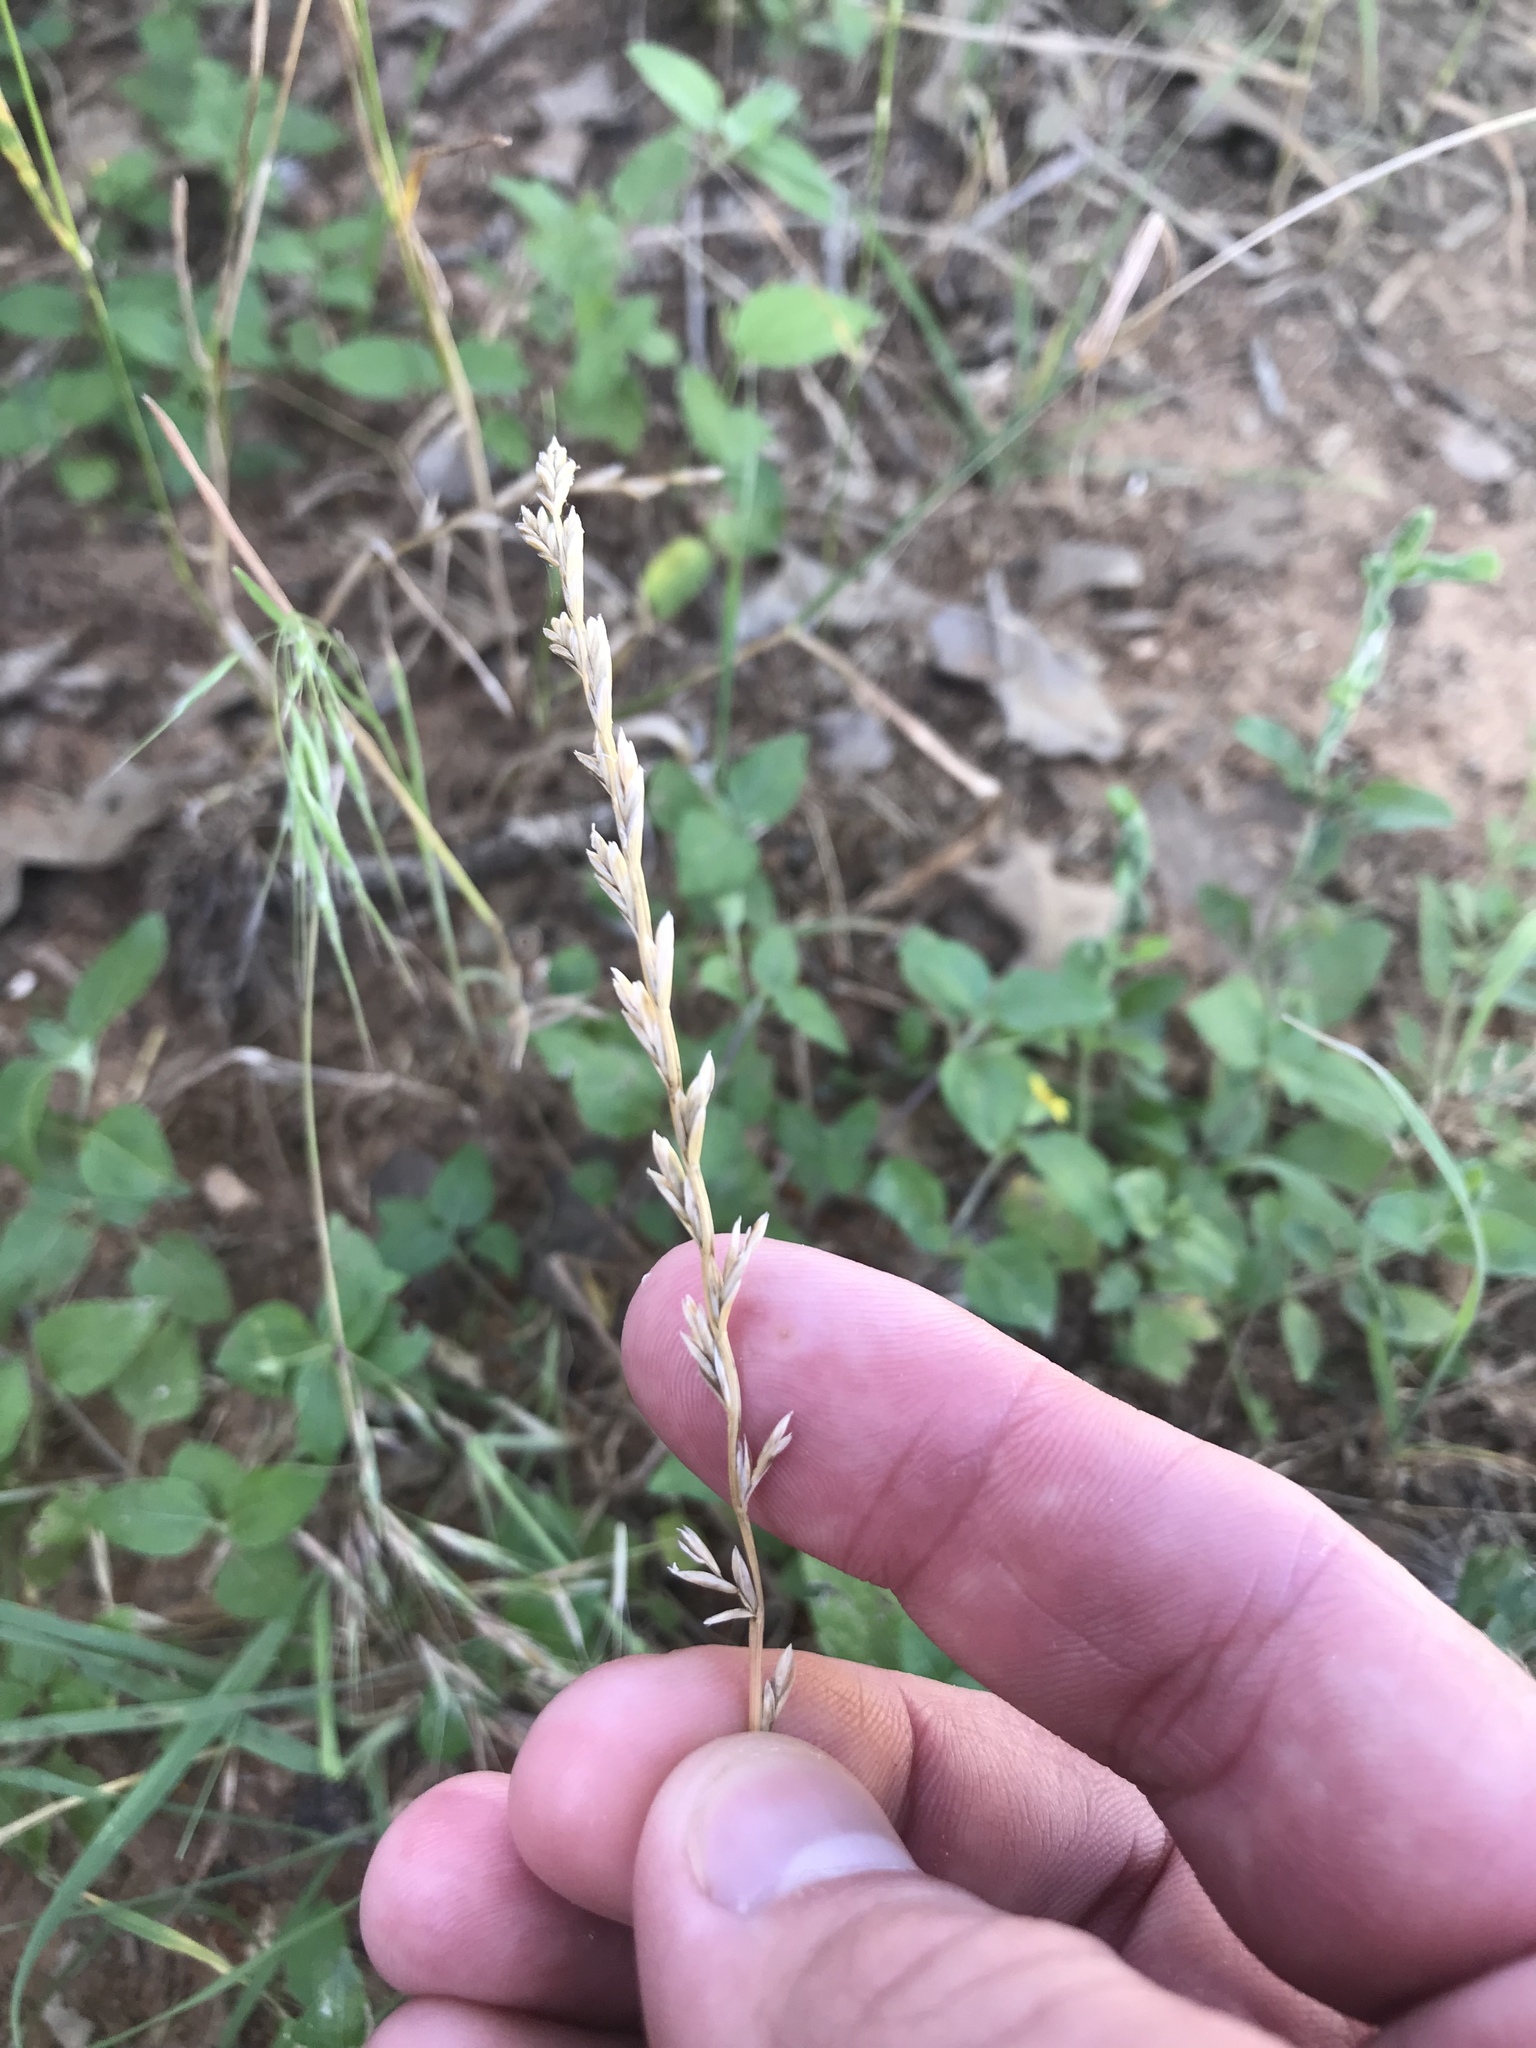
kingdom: Plantae
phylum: Tracheophyta
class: Liliopsida
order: Poales
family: Poaceae
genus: Lolium
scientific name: Lolium perenne
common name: Perennial ryegrass
